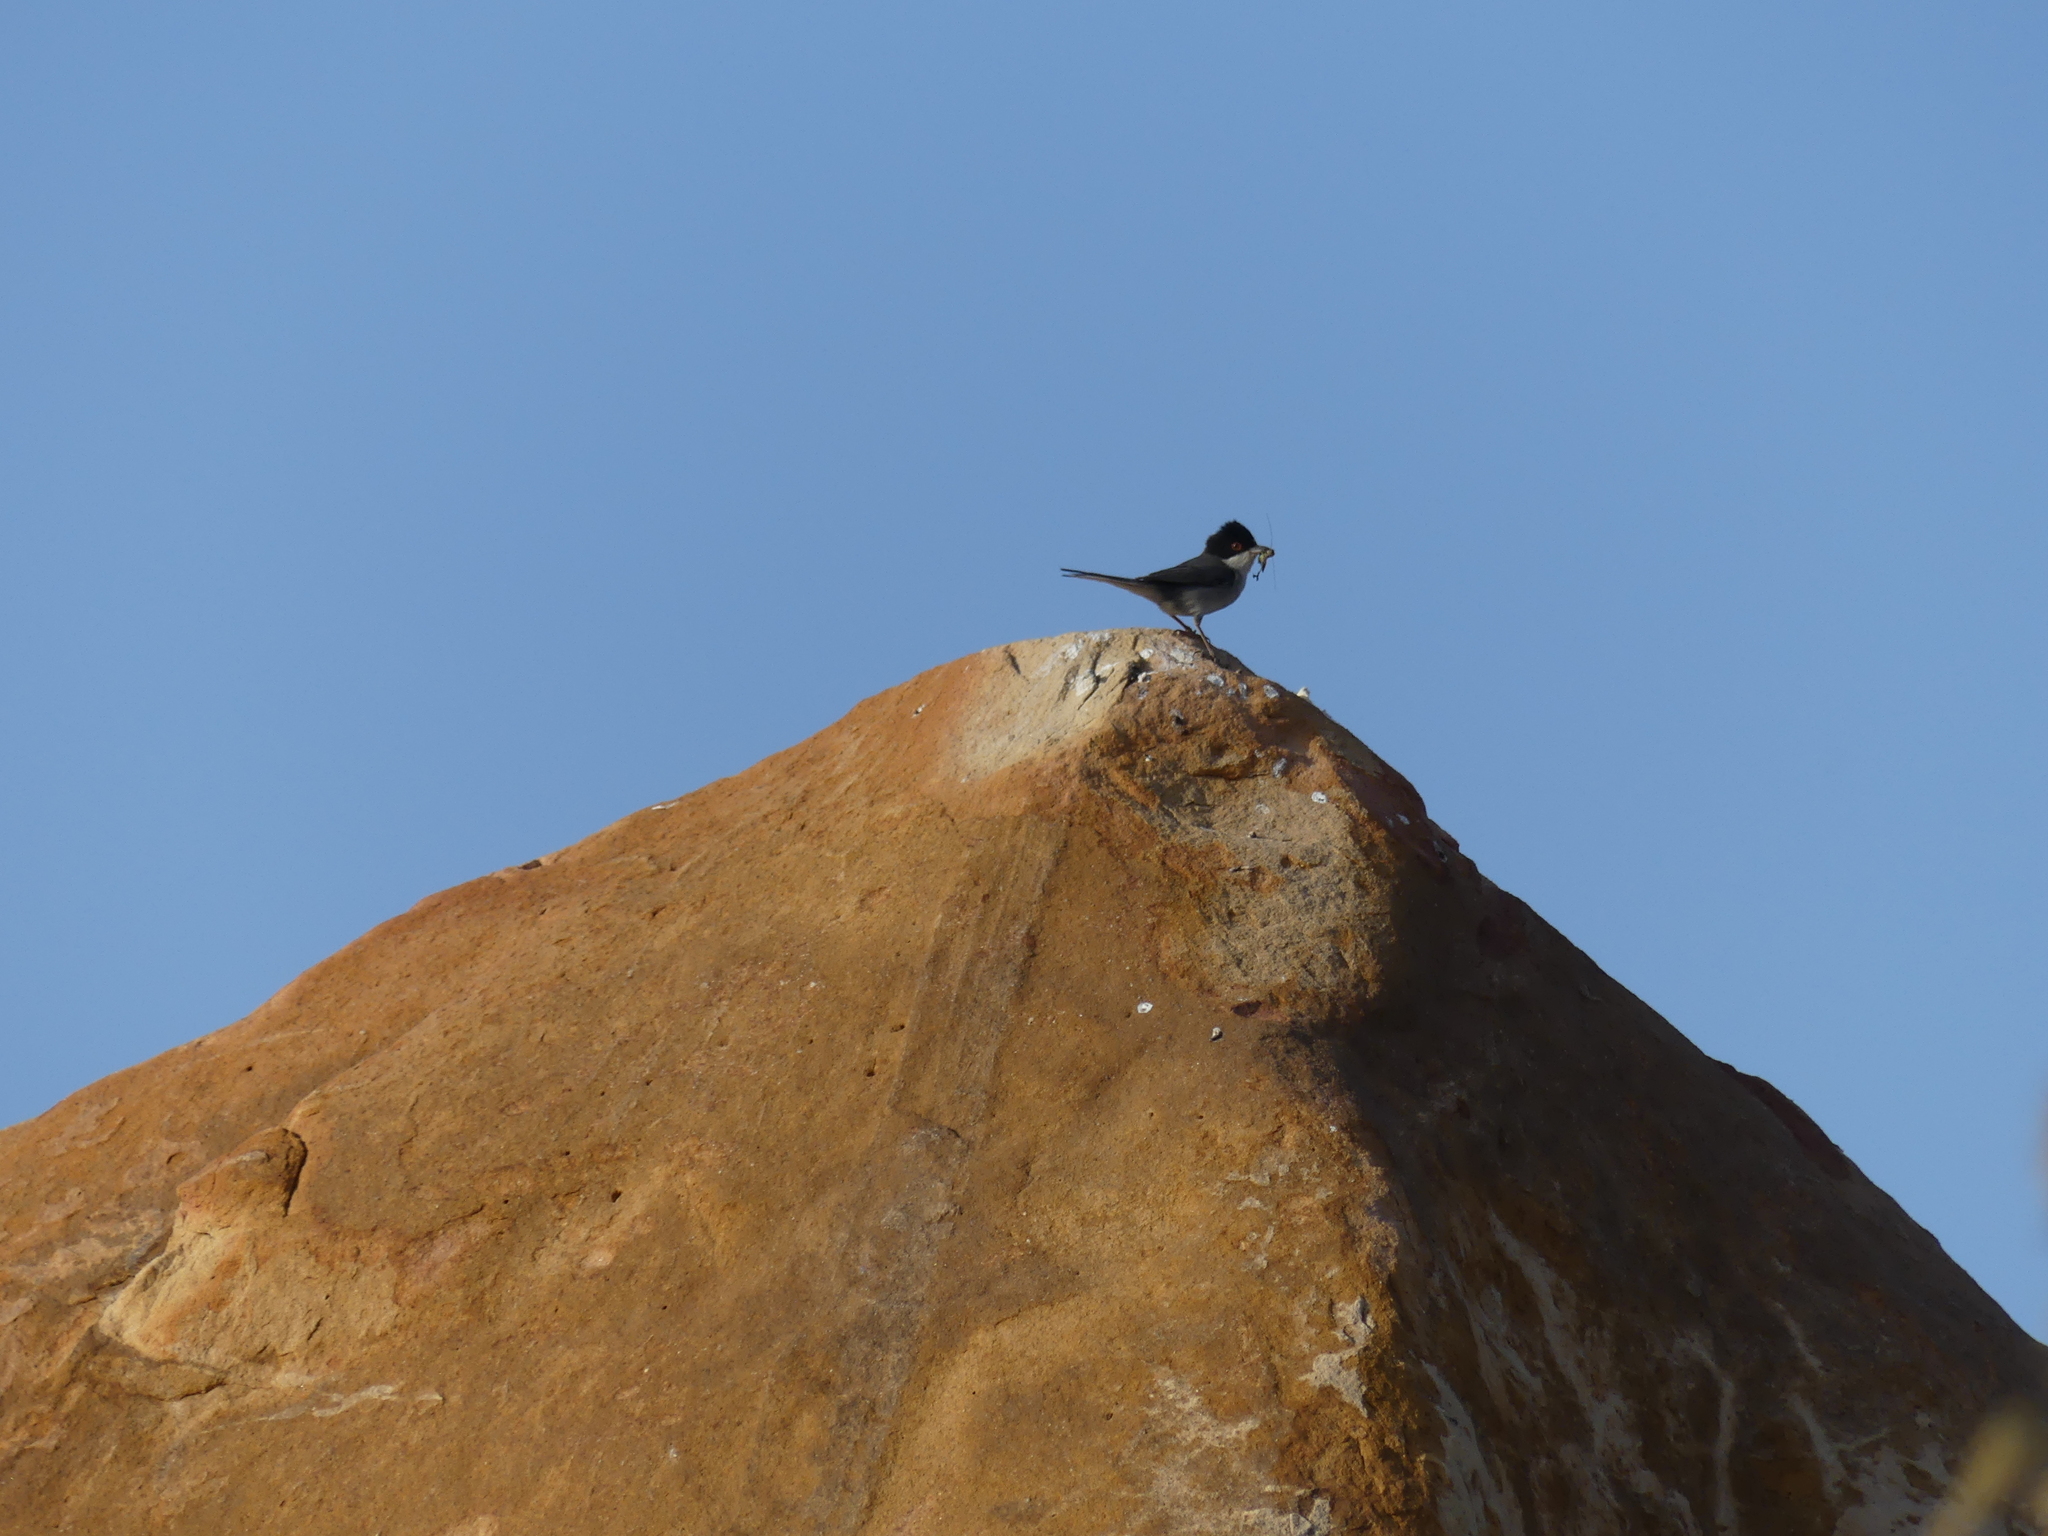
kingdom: Animalia
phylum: Chordata
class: Aves
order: Passeriformes
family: Sylviidae
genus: Curruca
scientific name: Curruca melanocephala
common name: Sardinian warbler
